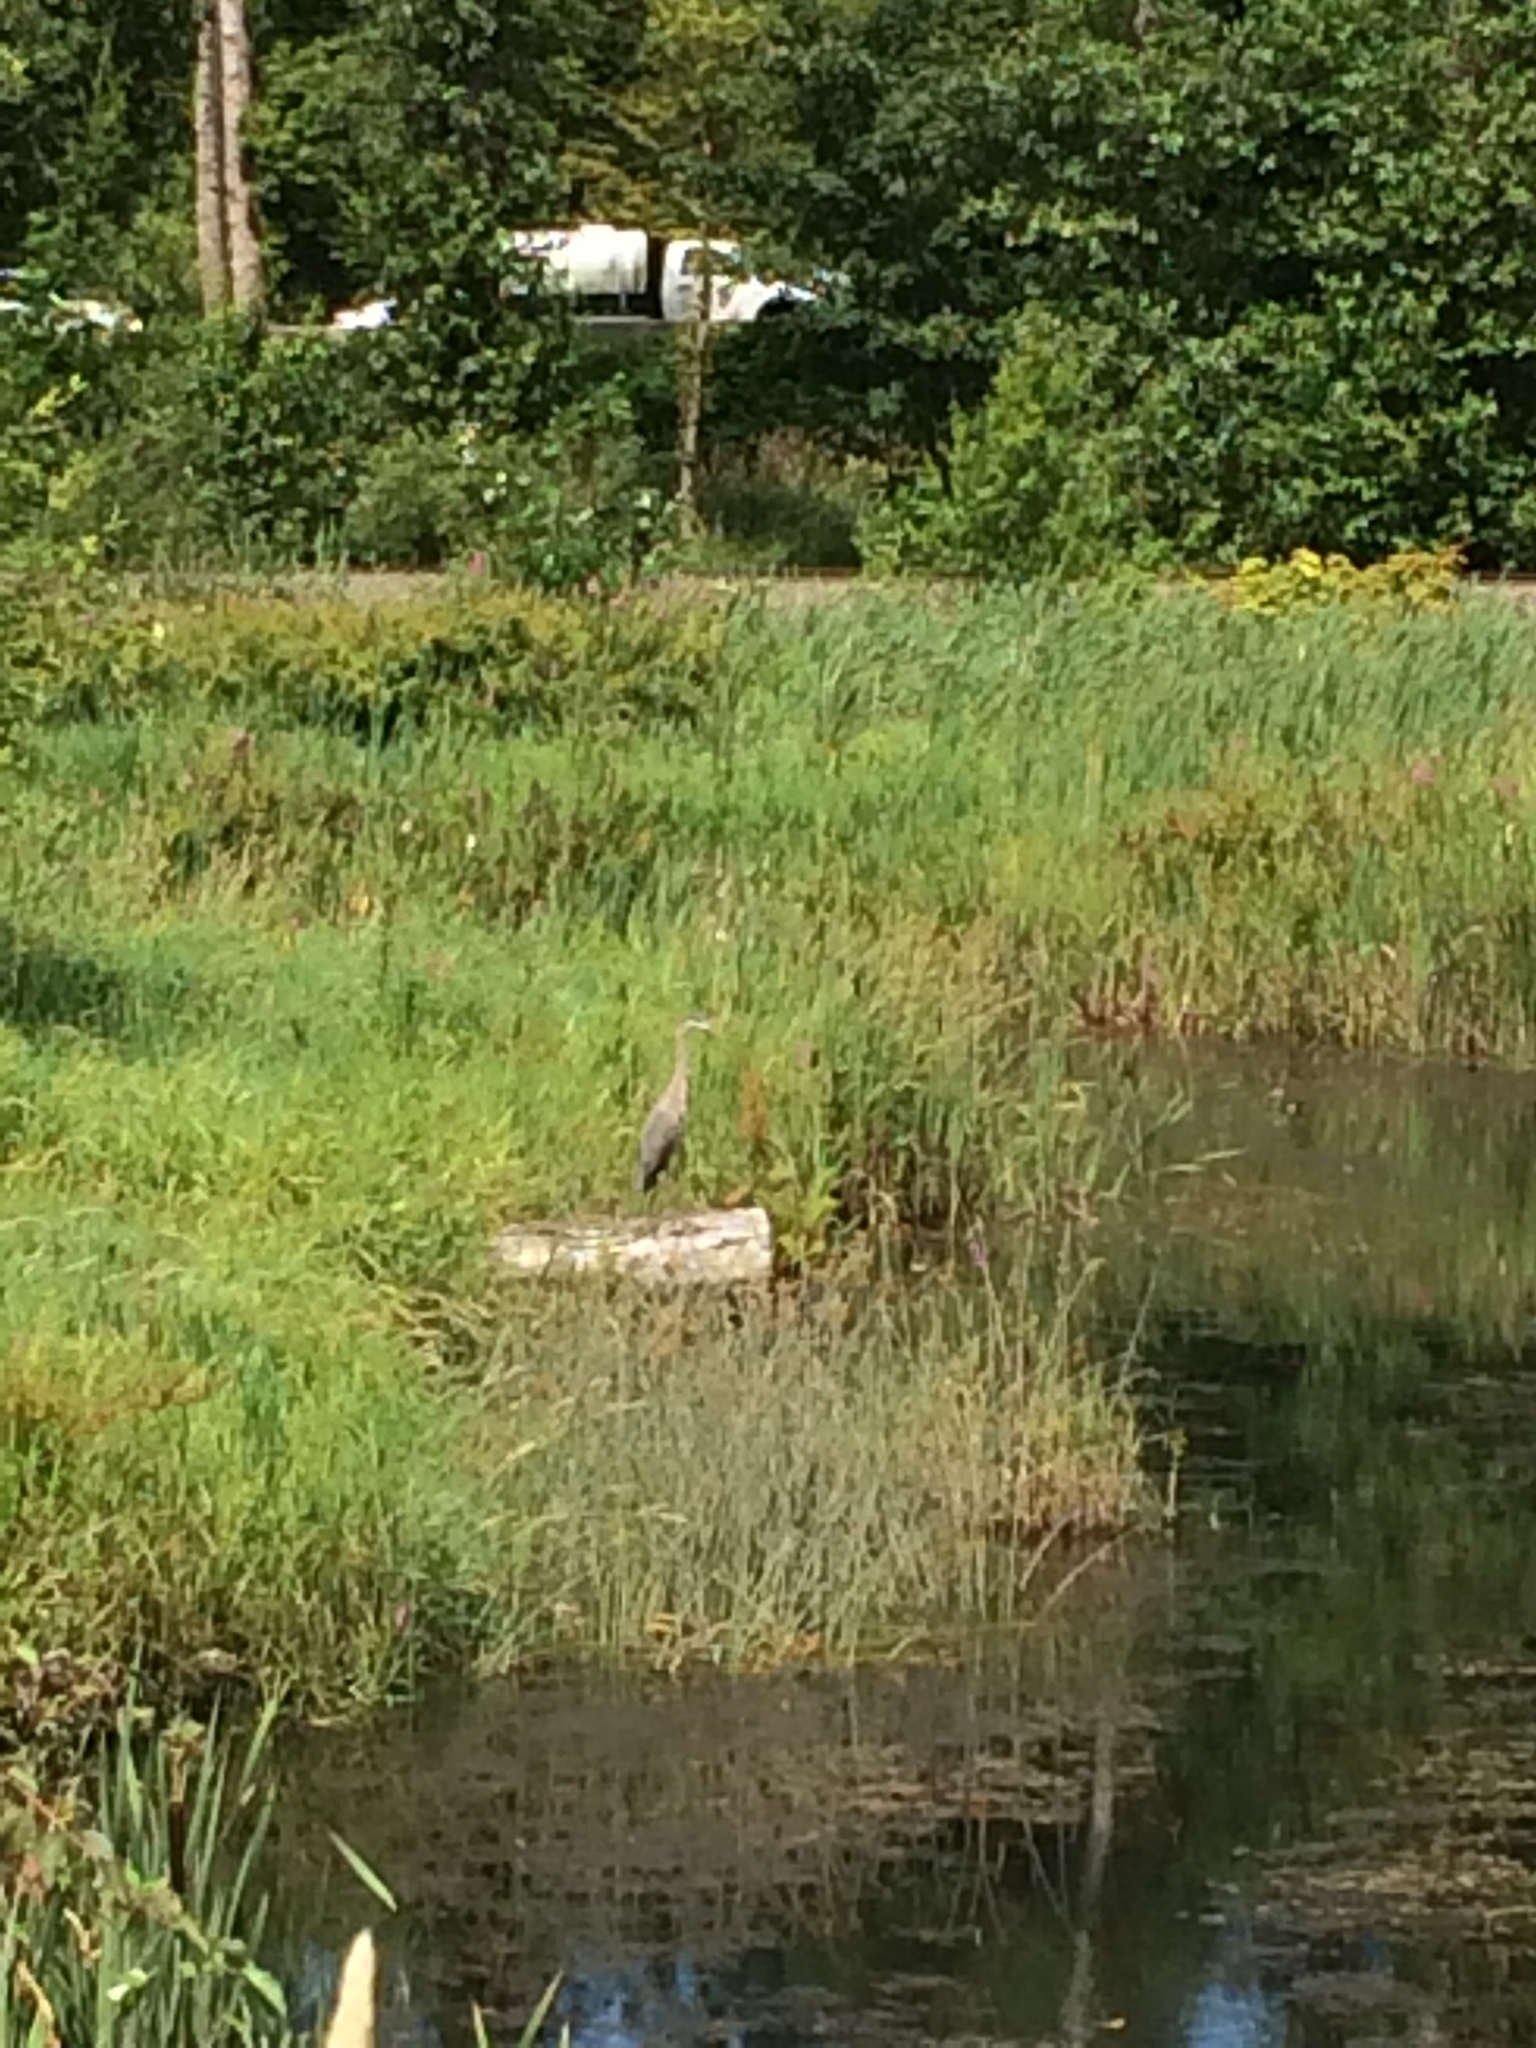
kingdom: Animalia
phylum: Chordata
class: Aves
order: Pelecaniformes
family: Ardeidae
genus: Ardea
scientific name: Ardea herodias
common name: Great blue heron
